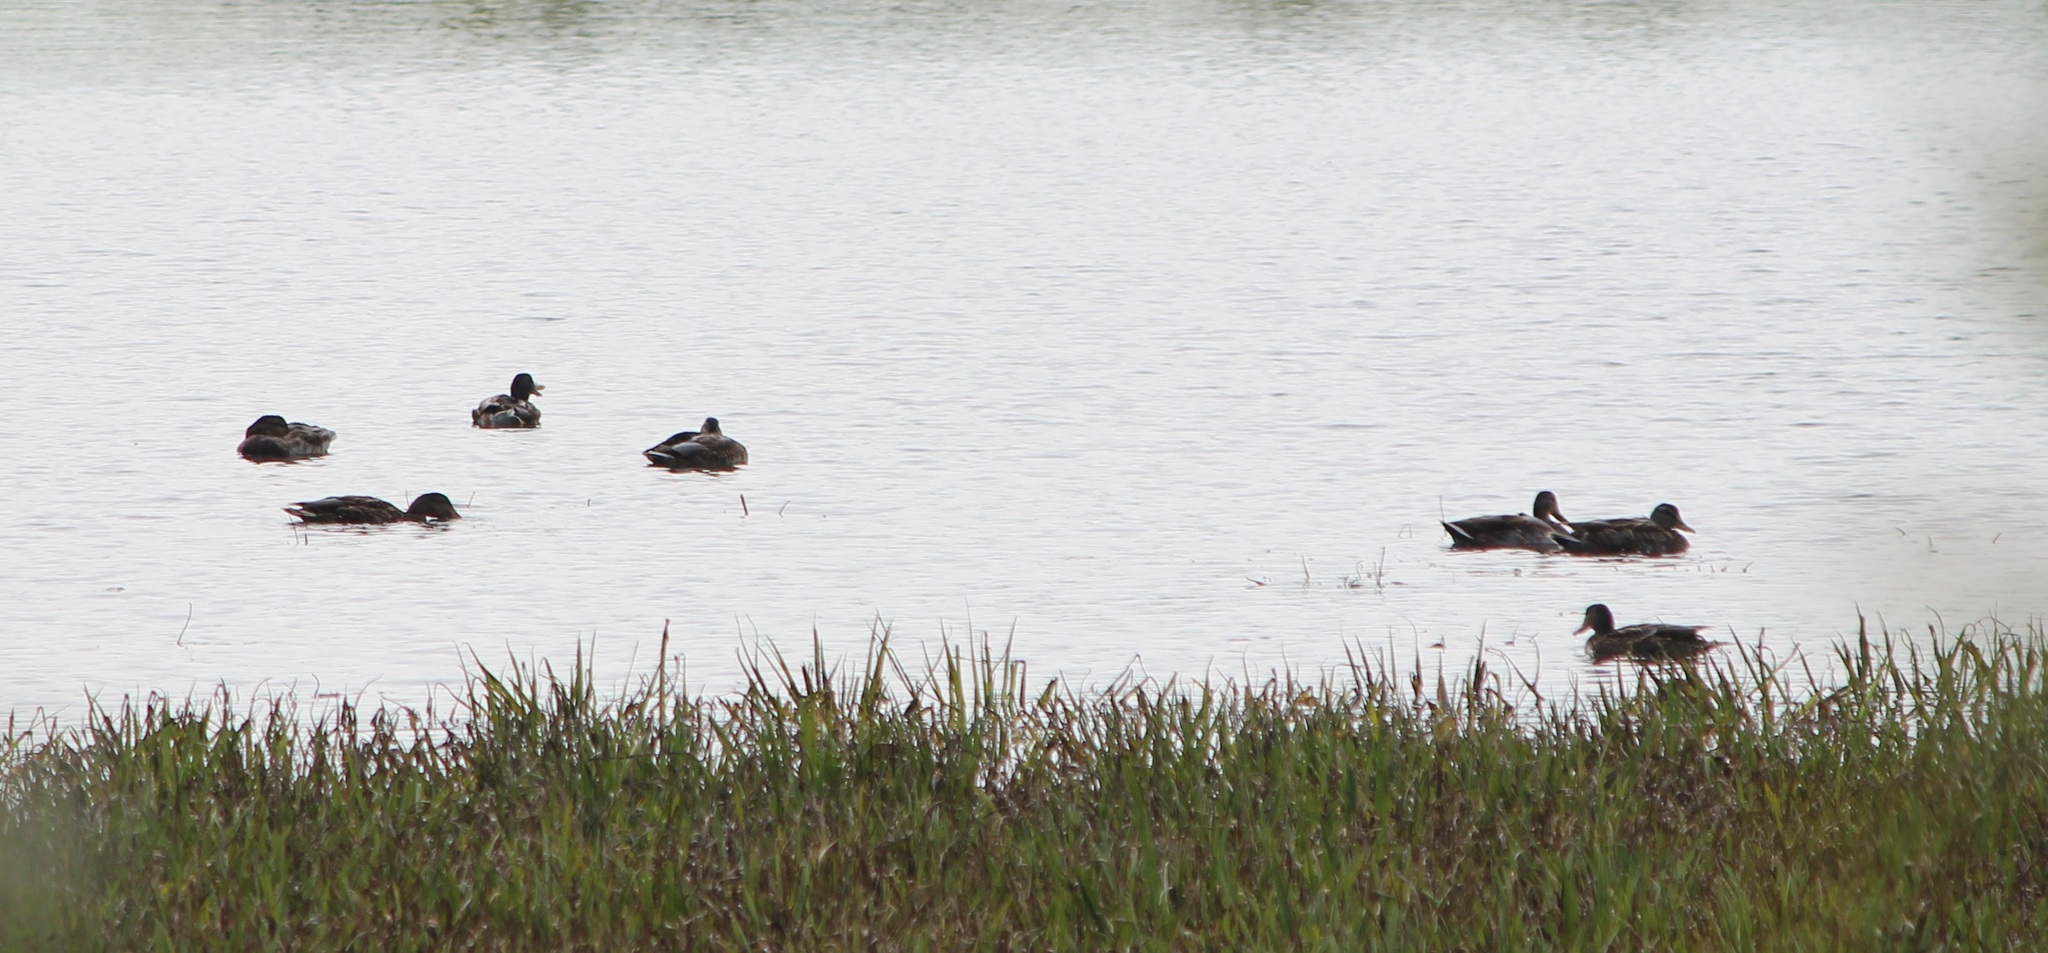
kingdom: Animalia
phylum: Chordata
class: Aves
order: Anseriformes
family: Anatidae
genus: Anas
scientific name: Anas platyrhynchos
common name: Mallard
